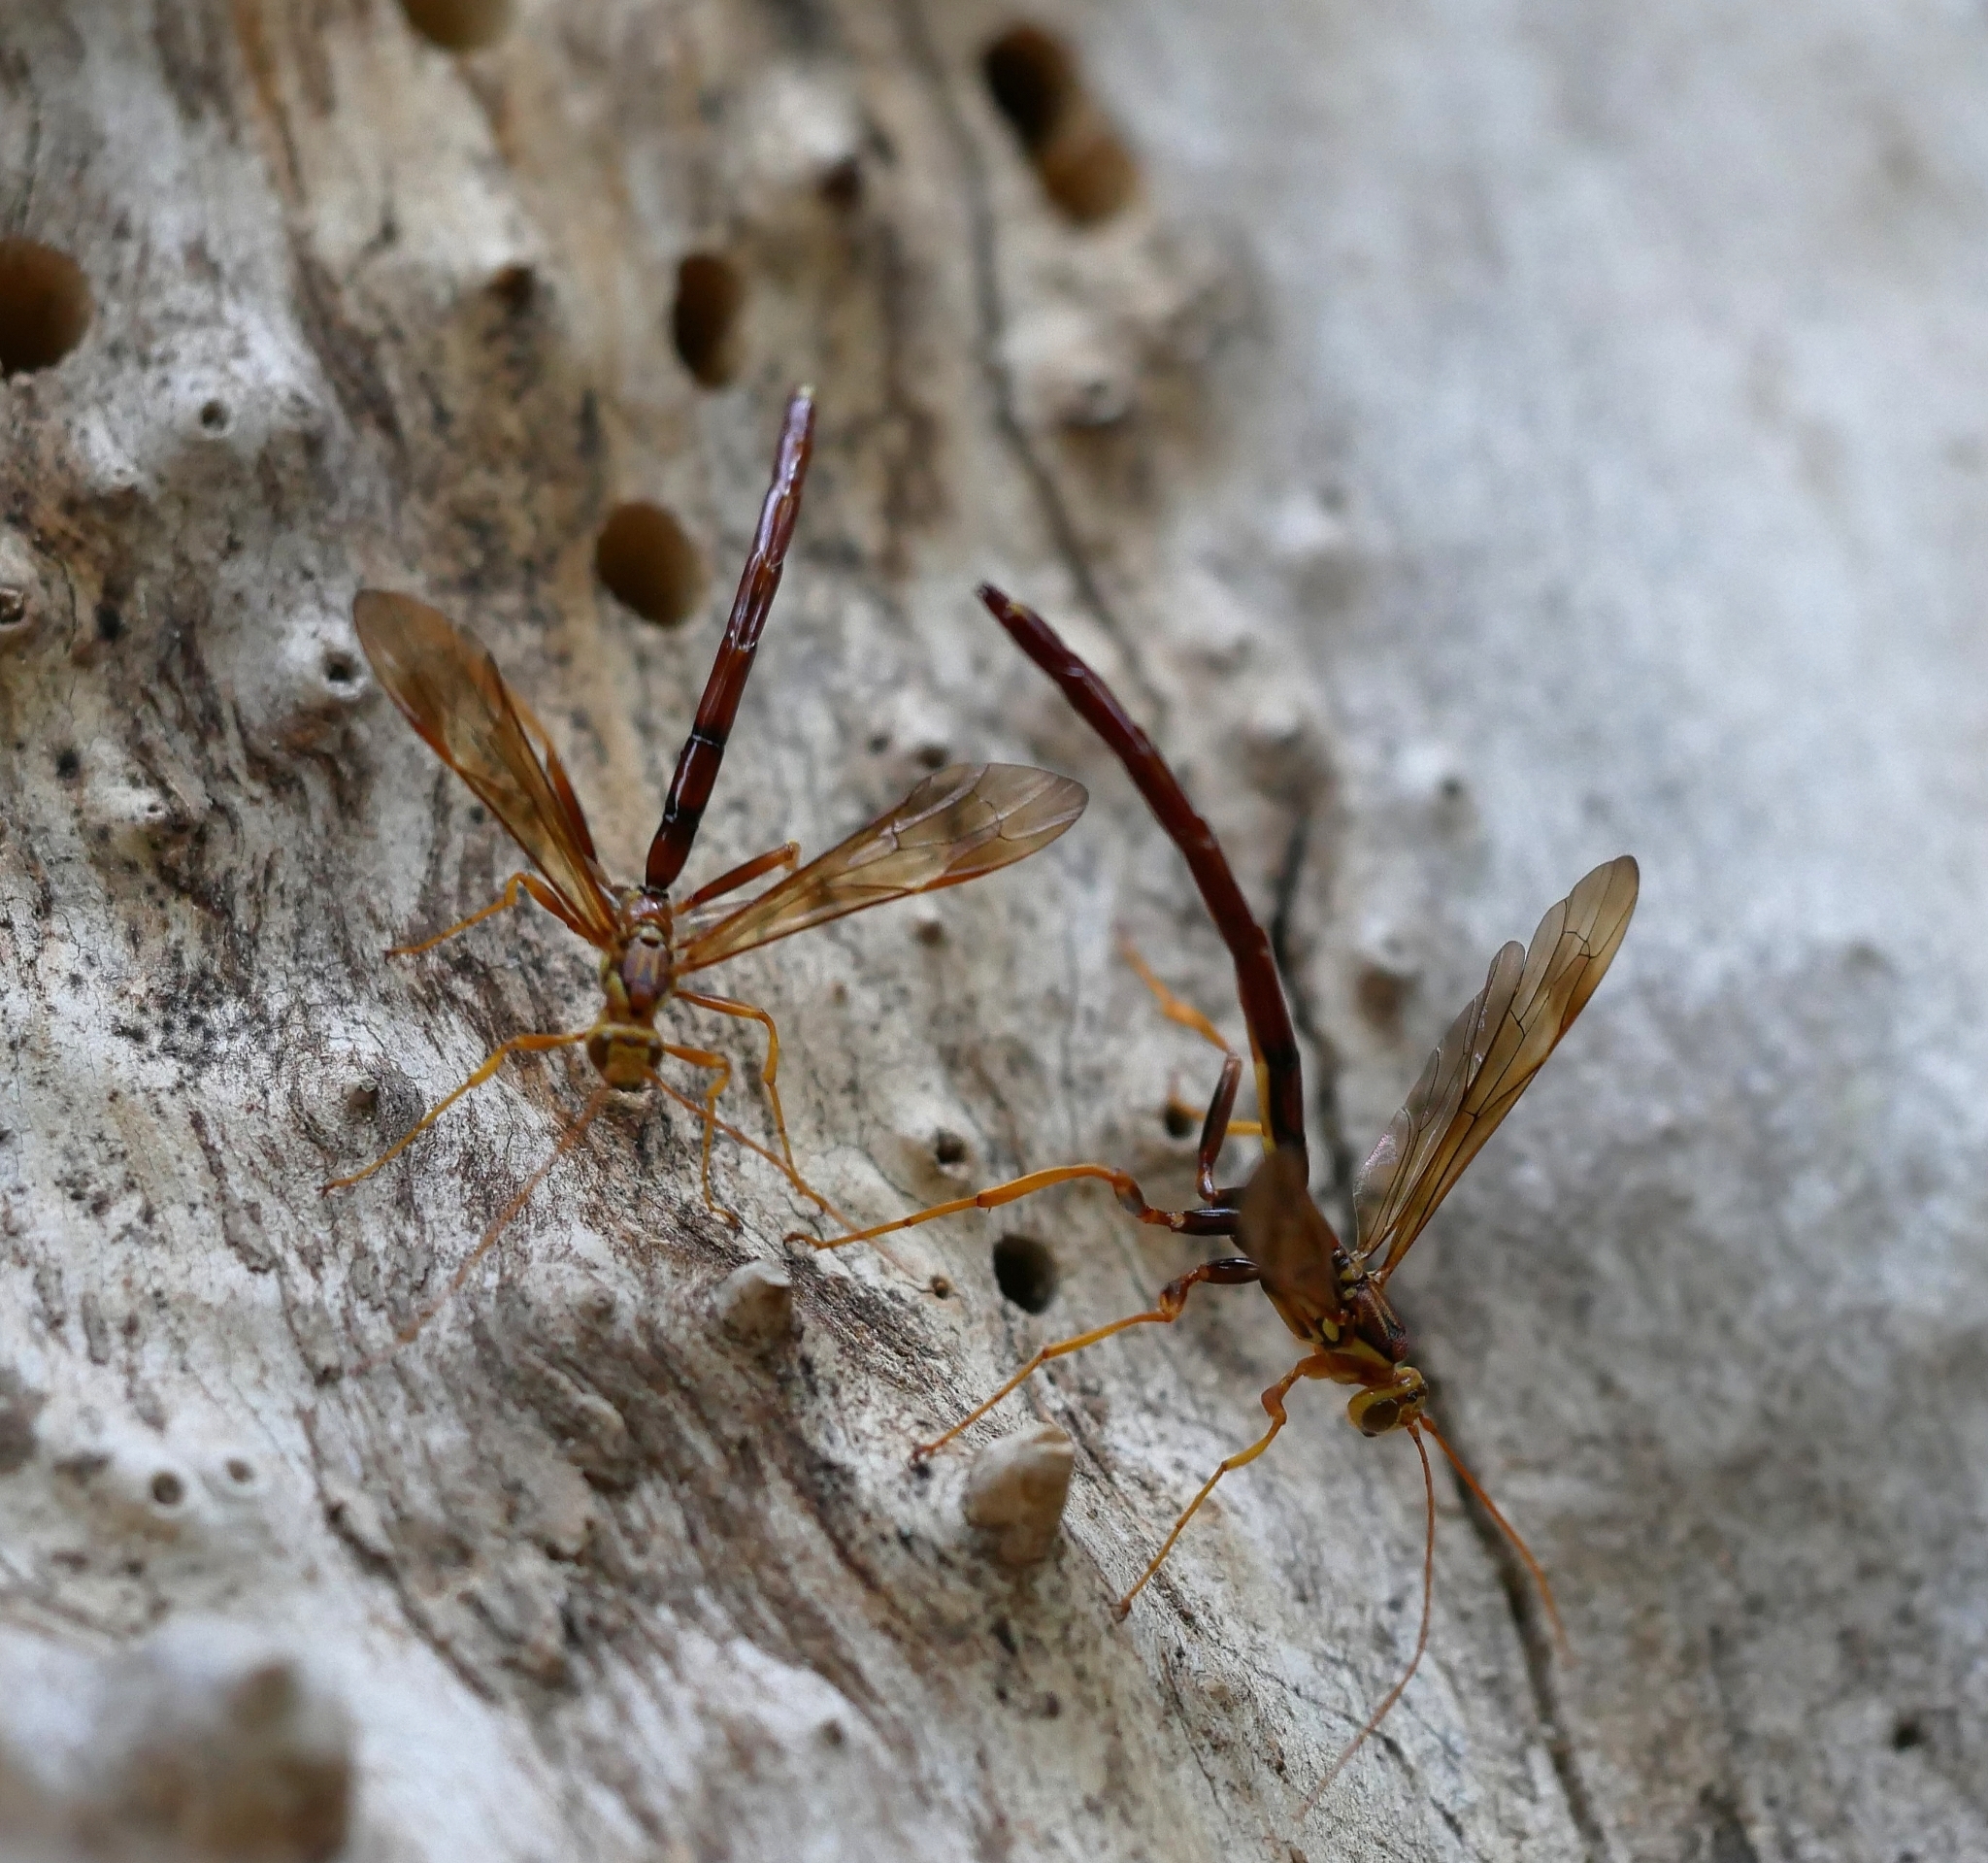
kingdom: Animalia
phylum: Arthropoda
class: Insecta
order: Hymenoptera
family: Ichneumonidae
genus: Megarhyssa
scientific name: Megarhyssa macrura
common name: Long-tailed giant ichneumonid wasp
